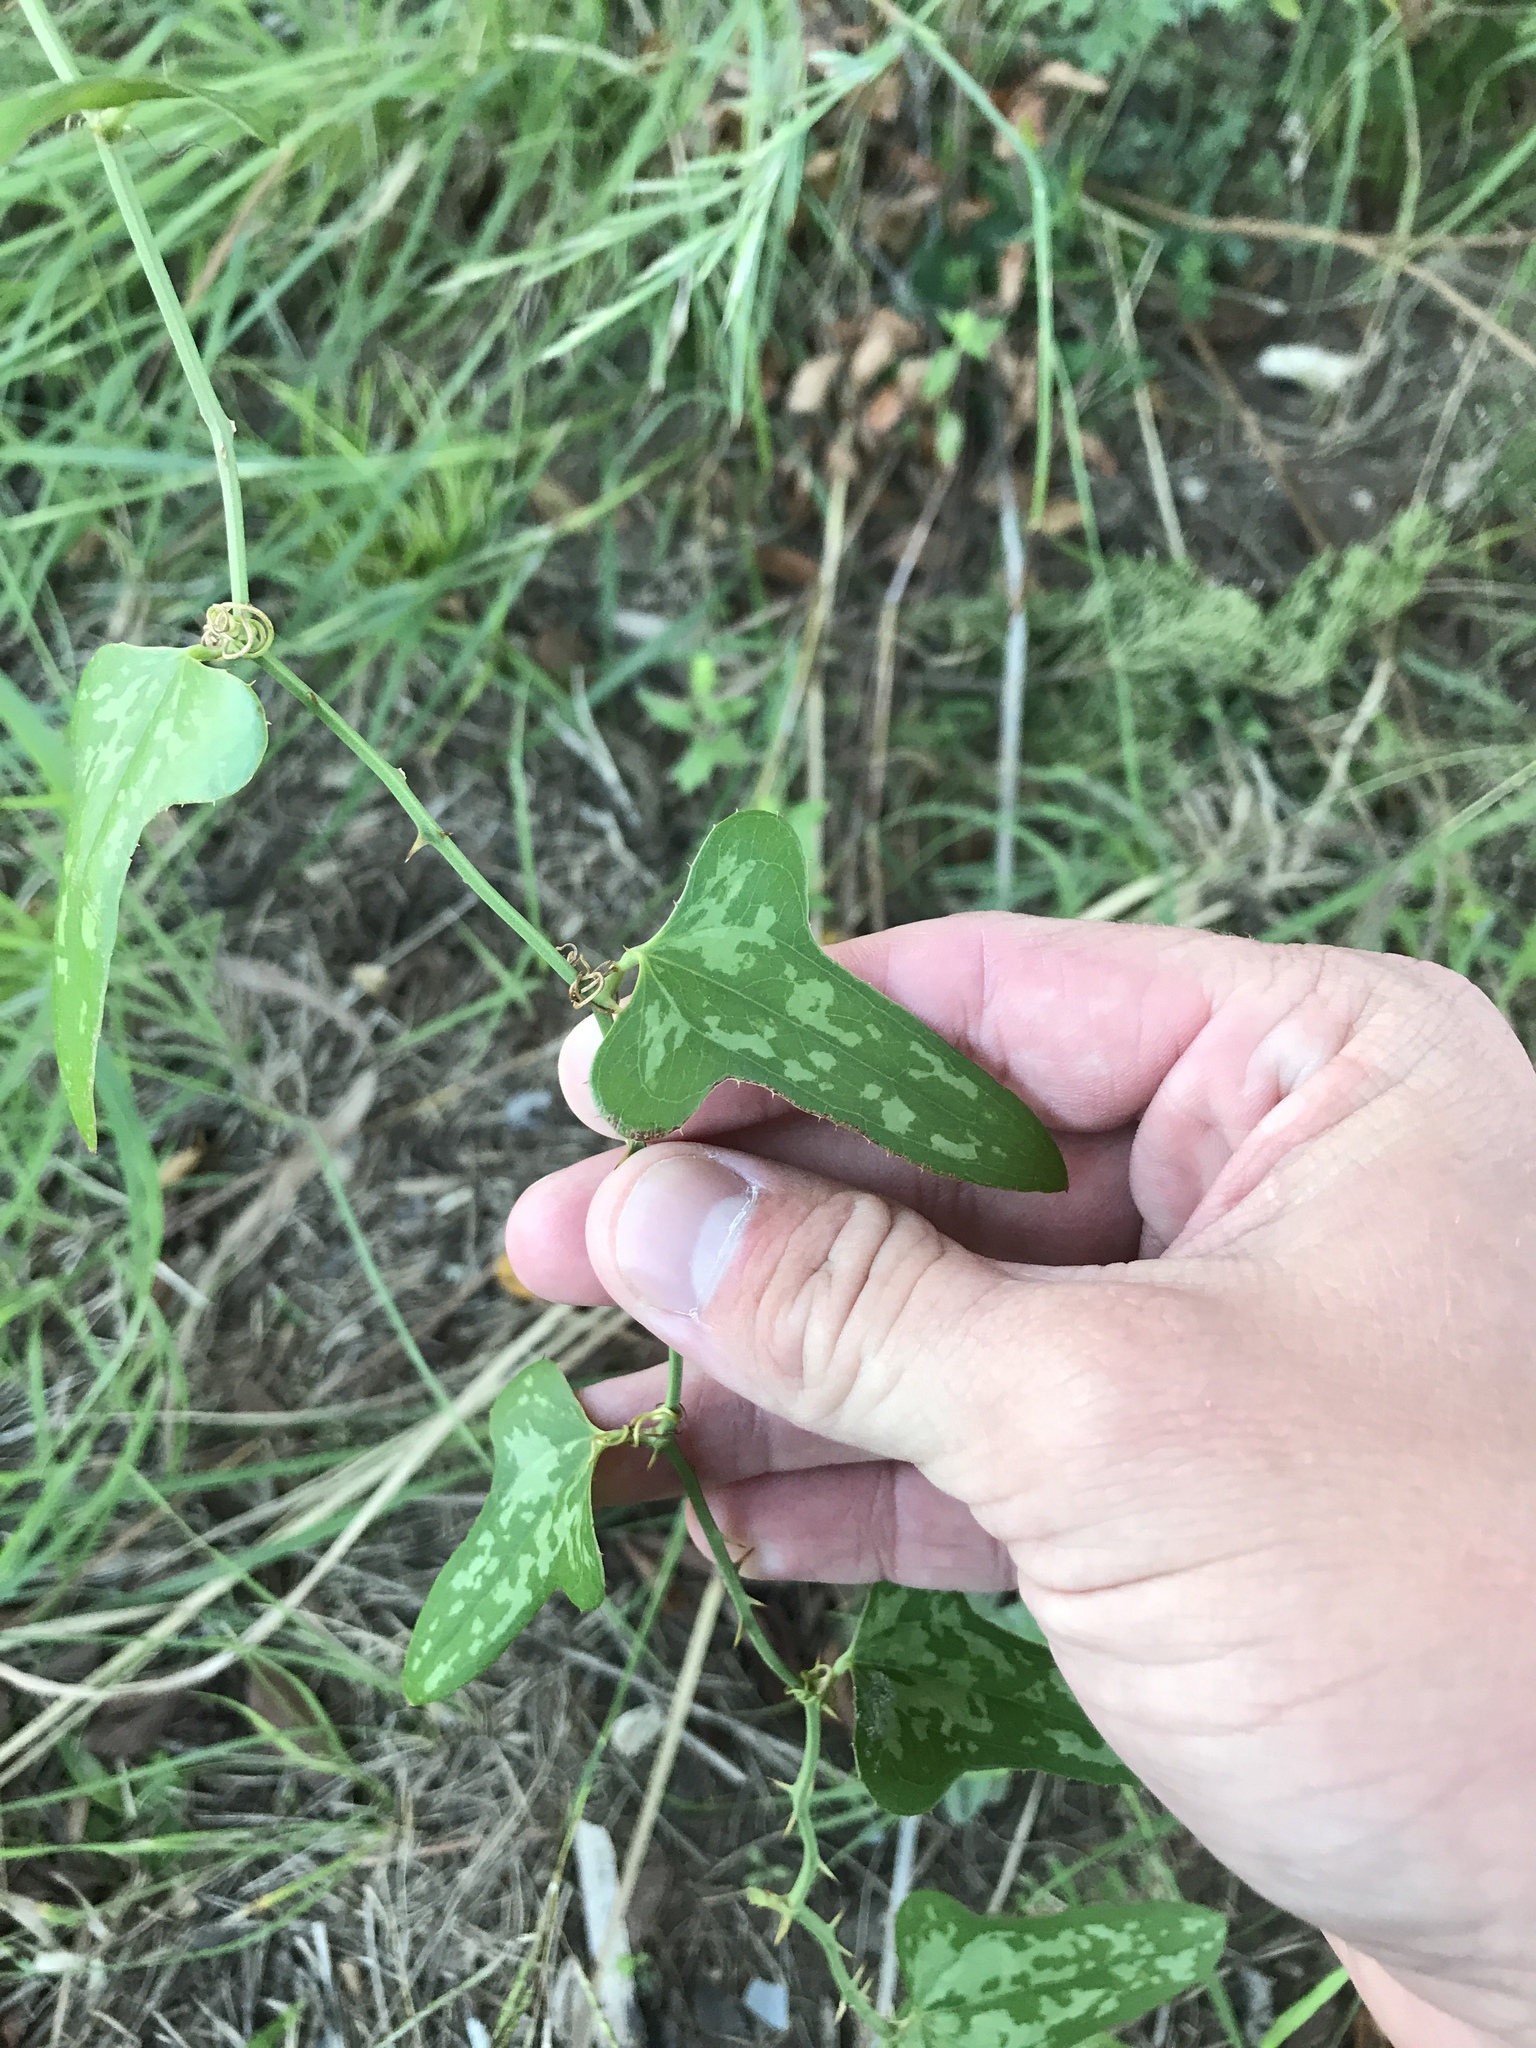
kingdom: Plantae
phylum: Tracheophyta
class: Liliopsida
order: Liliales
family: Smilacaceae
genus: Smilax
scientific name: Smilax bona-nox
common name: Catbrier
